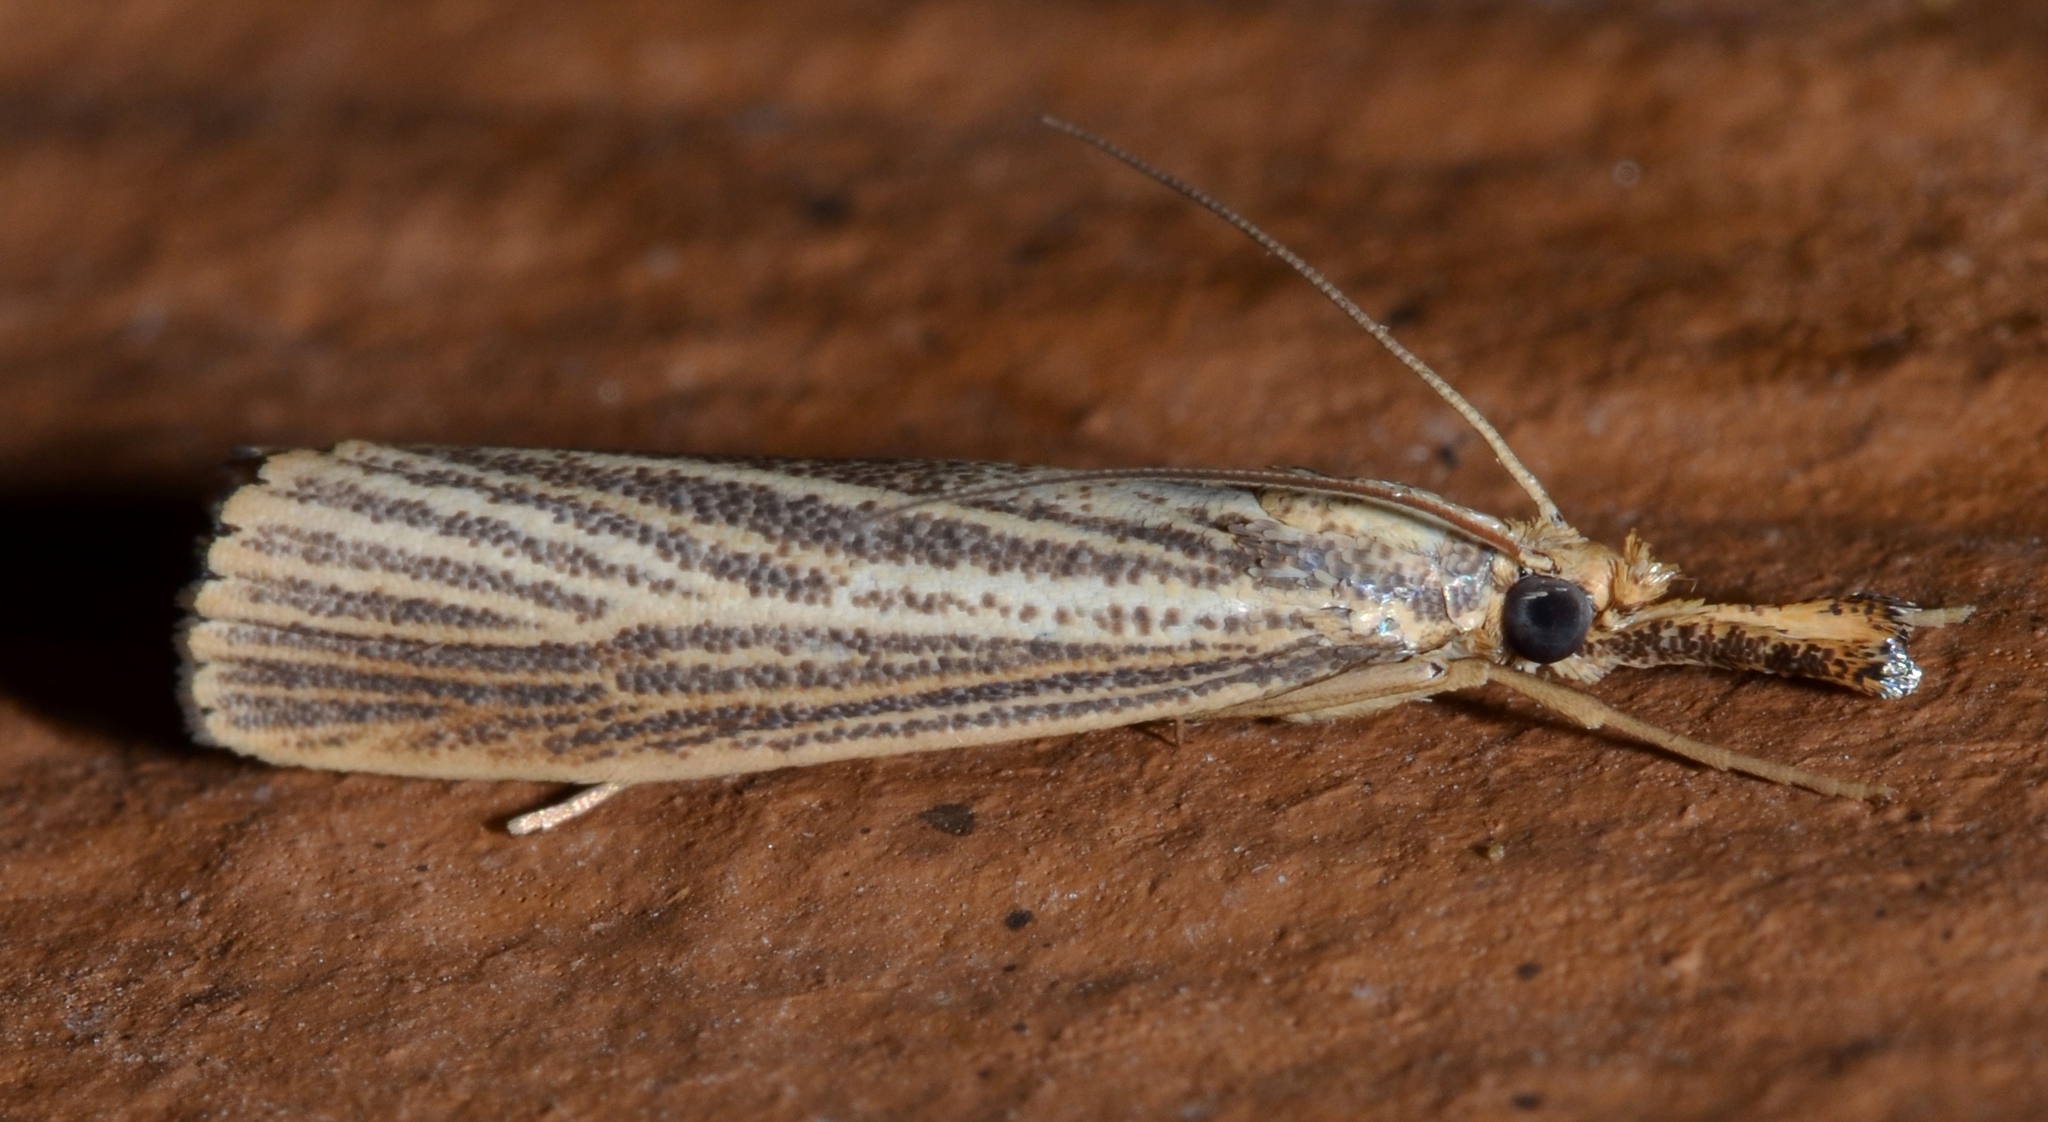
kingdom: Animalia
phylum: Arthropoda
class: Insecta
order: Lepidoptera
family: Crambidae
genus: Agriphila
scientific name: Agriphila vulgivagellus
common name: Vagabond crambus moth
